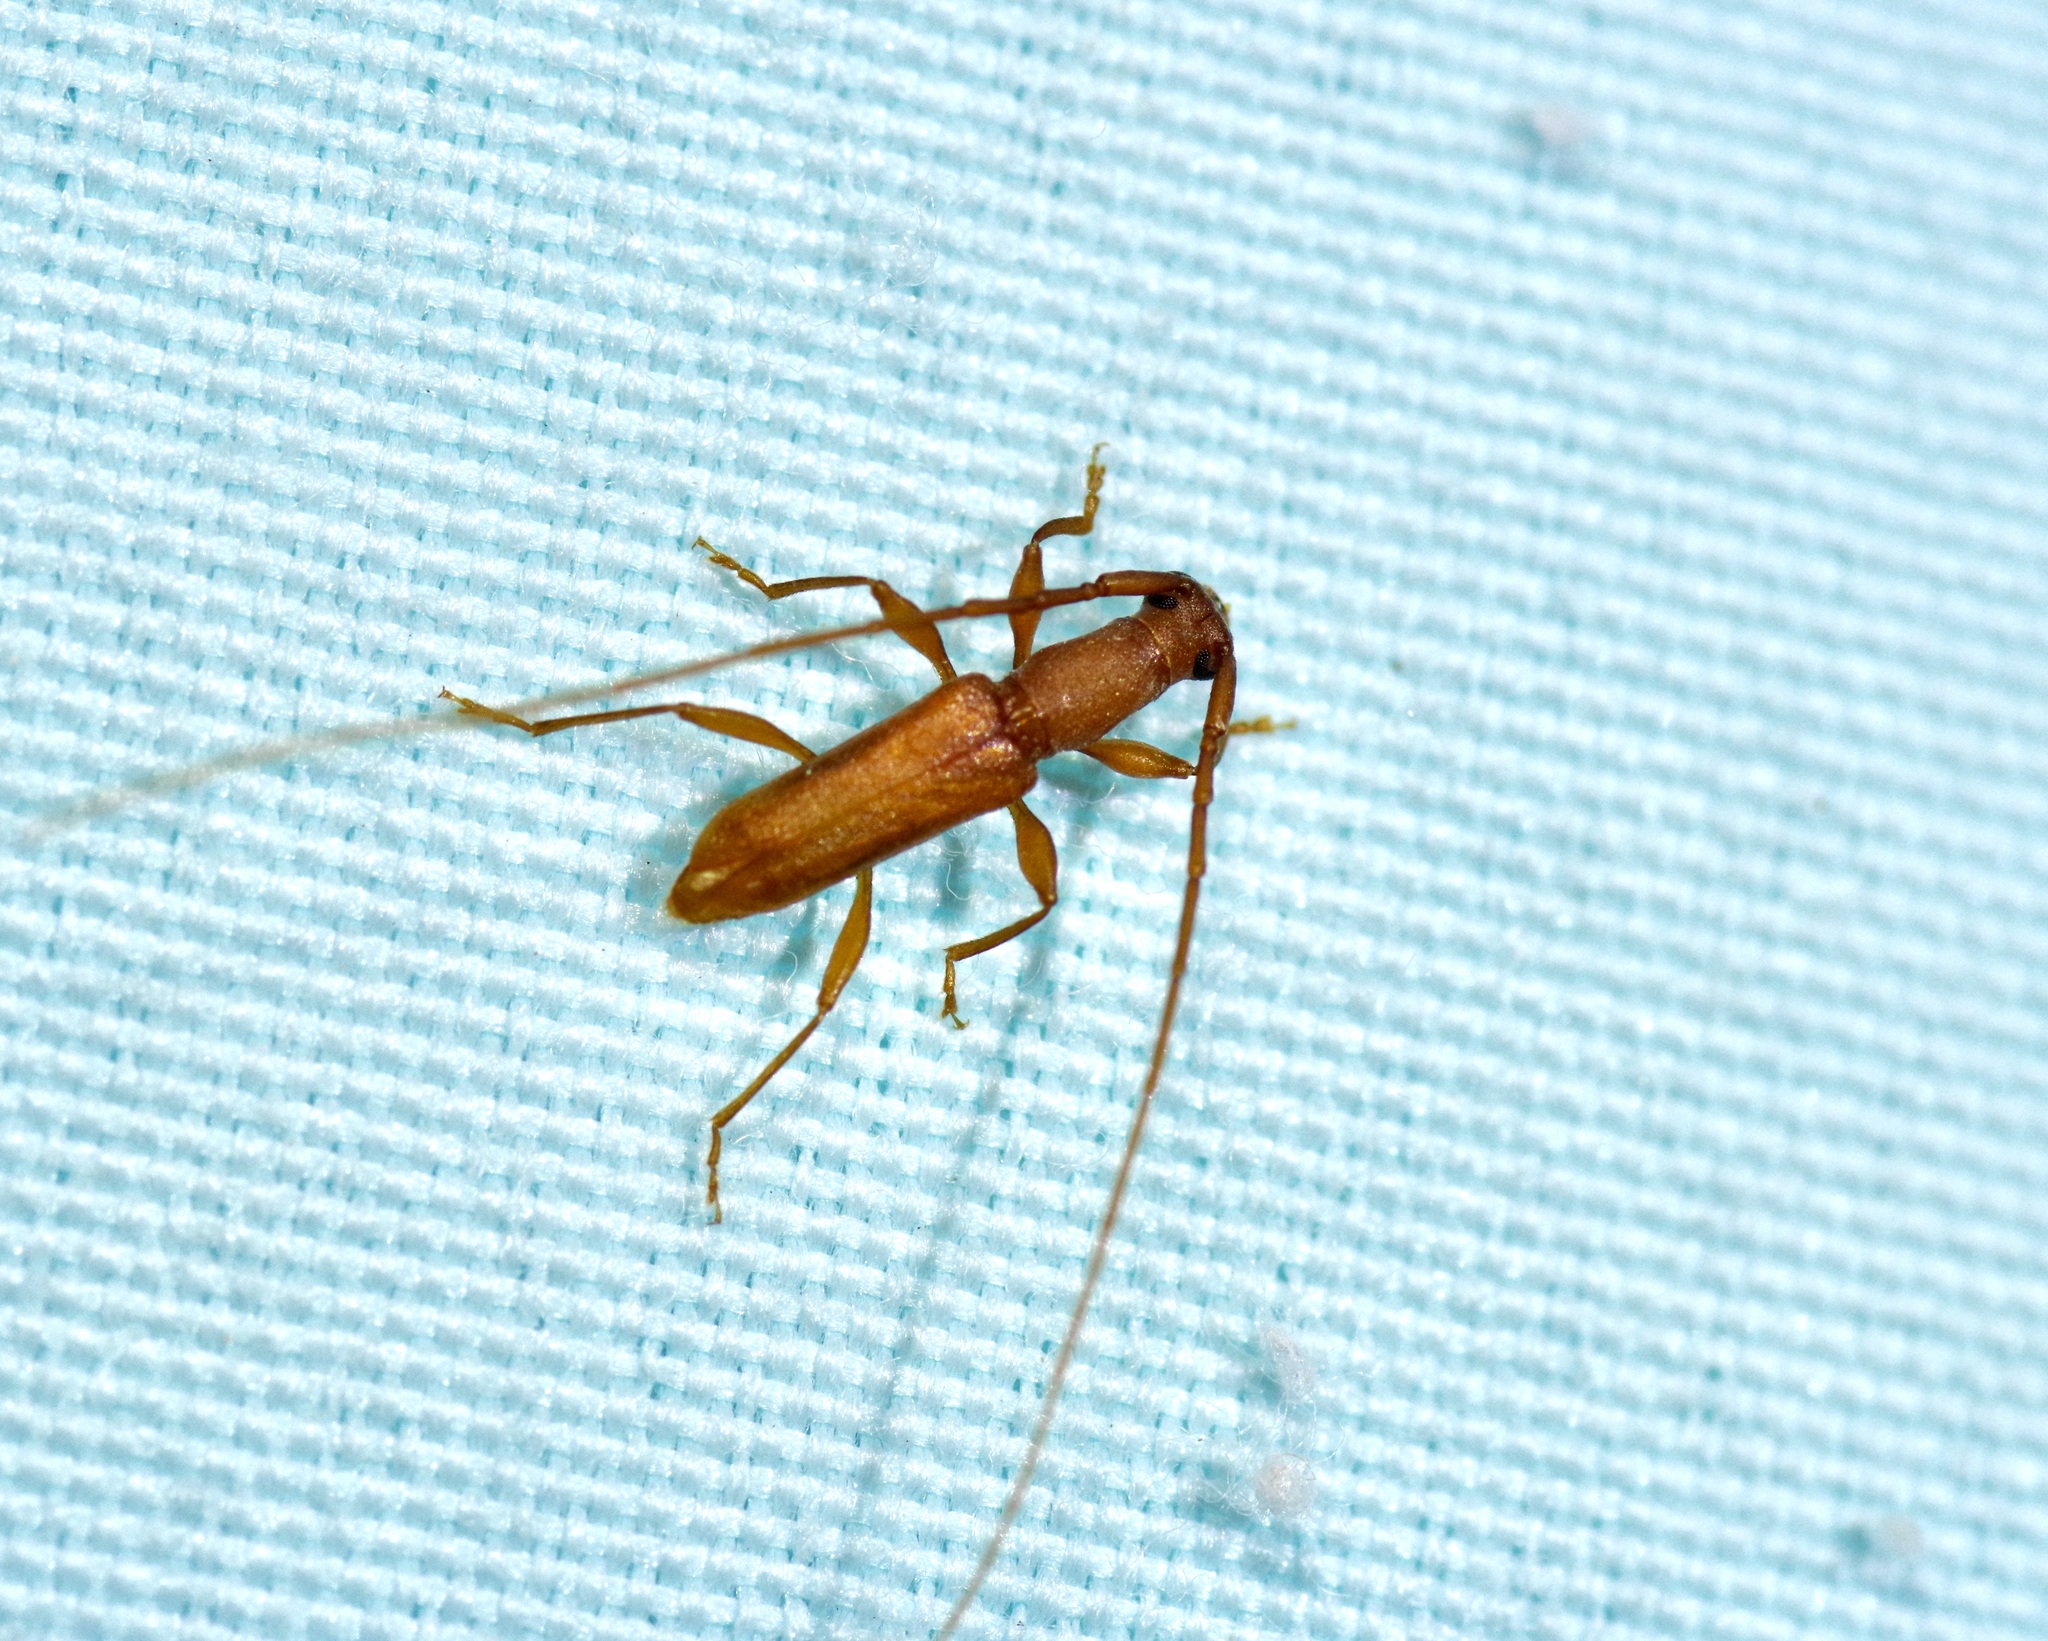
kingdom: Animalia
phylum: Arthropoda
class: Insecta
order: Coleoptera
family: Cerambycidae
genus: Hypexilis
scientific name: Hypexilis pallida
